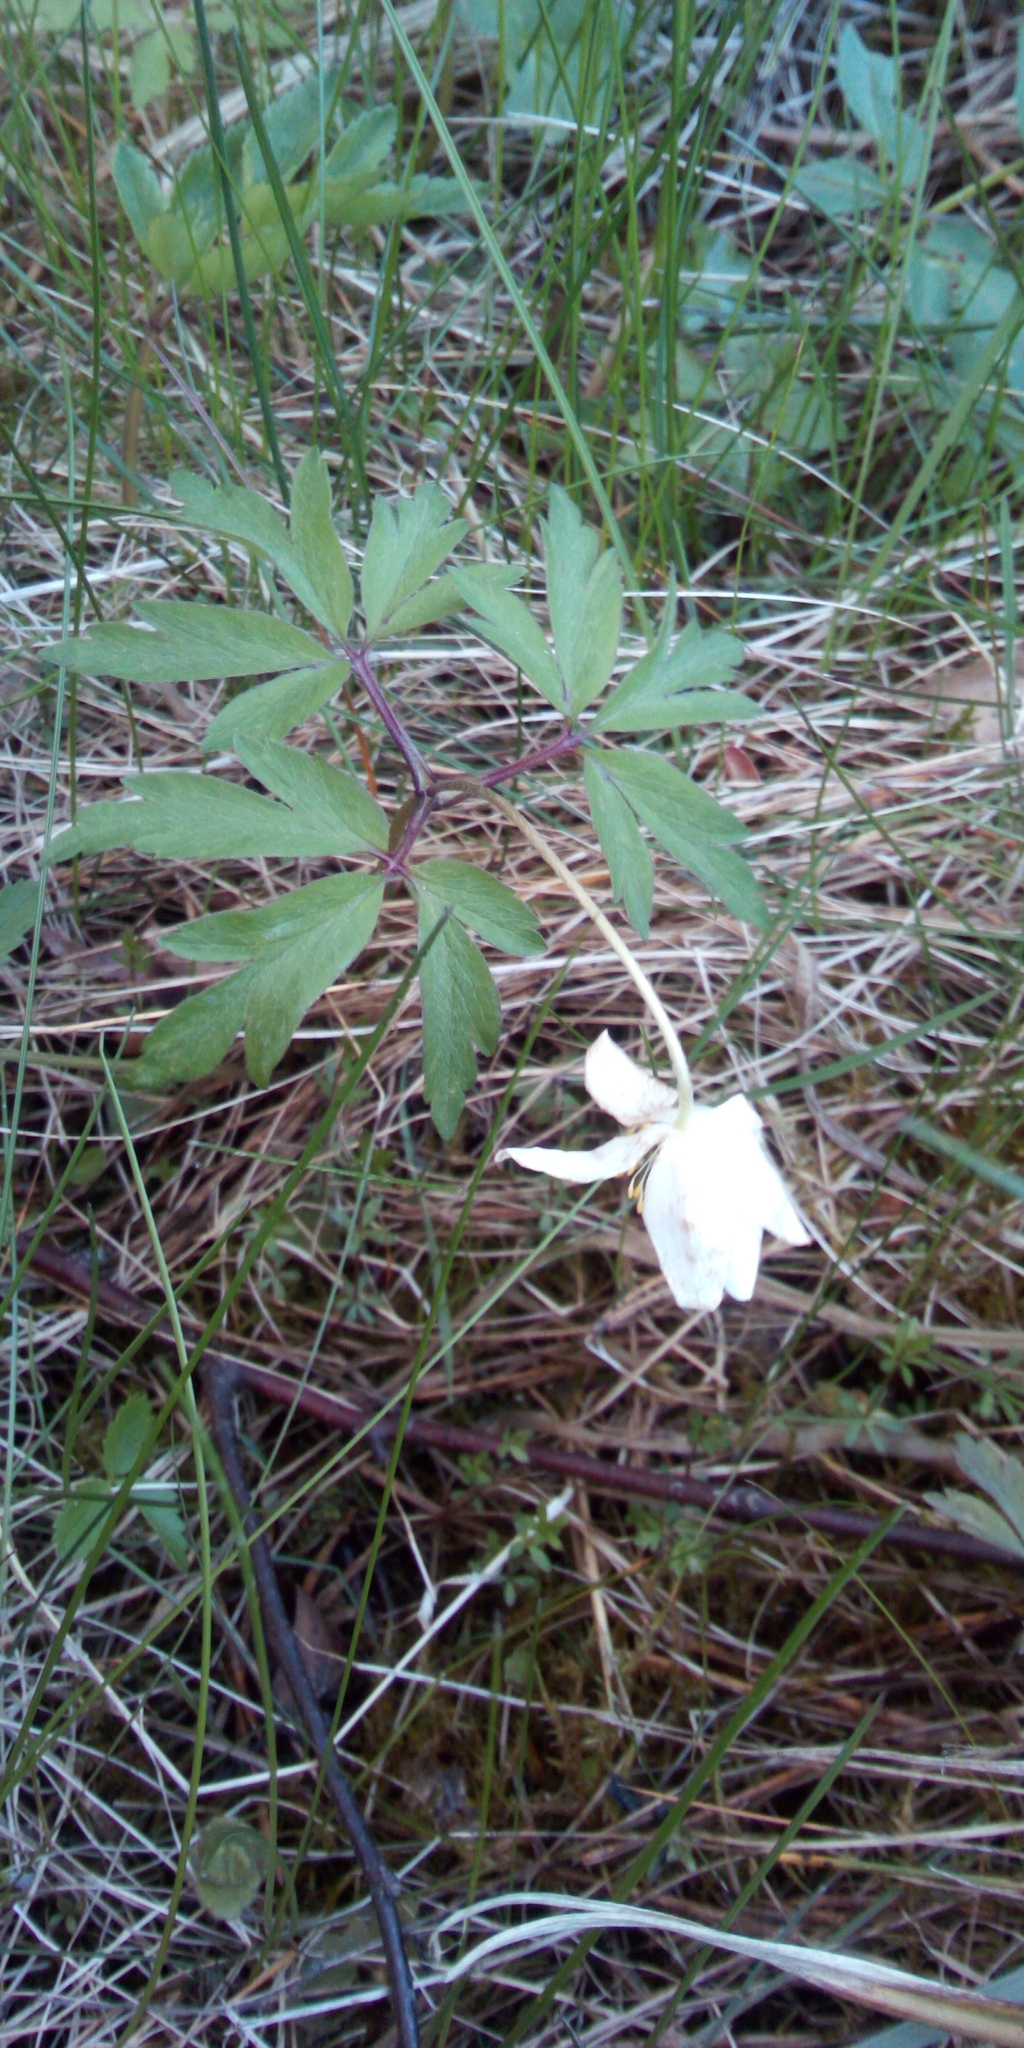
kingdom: Plantae
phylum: Tracheophyta
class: Magnoliopsida
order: Ranunculales
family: Ranunculaceae
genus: Anemone
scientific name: Anemone nemorosa
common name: Wood anemone
